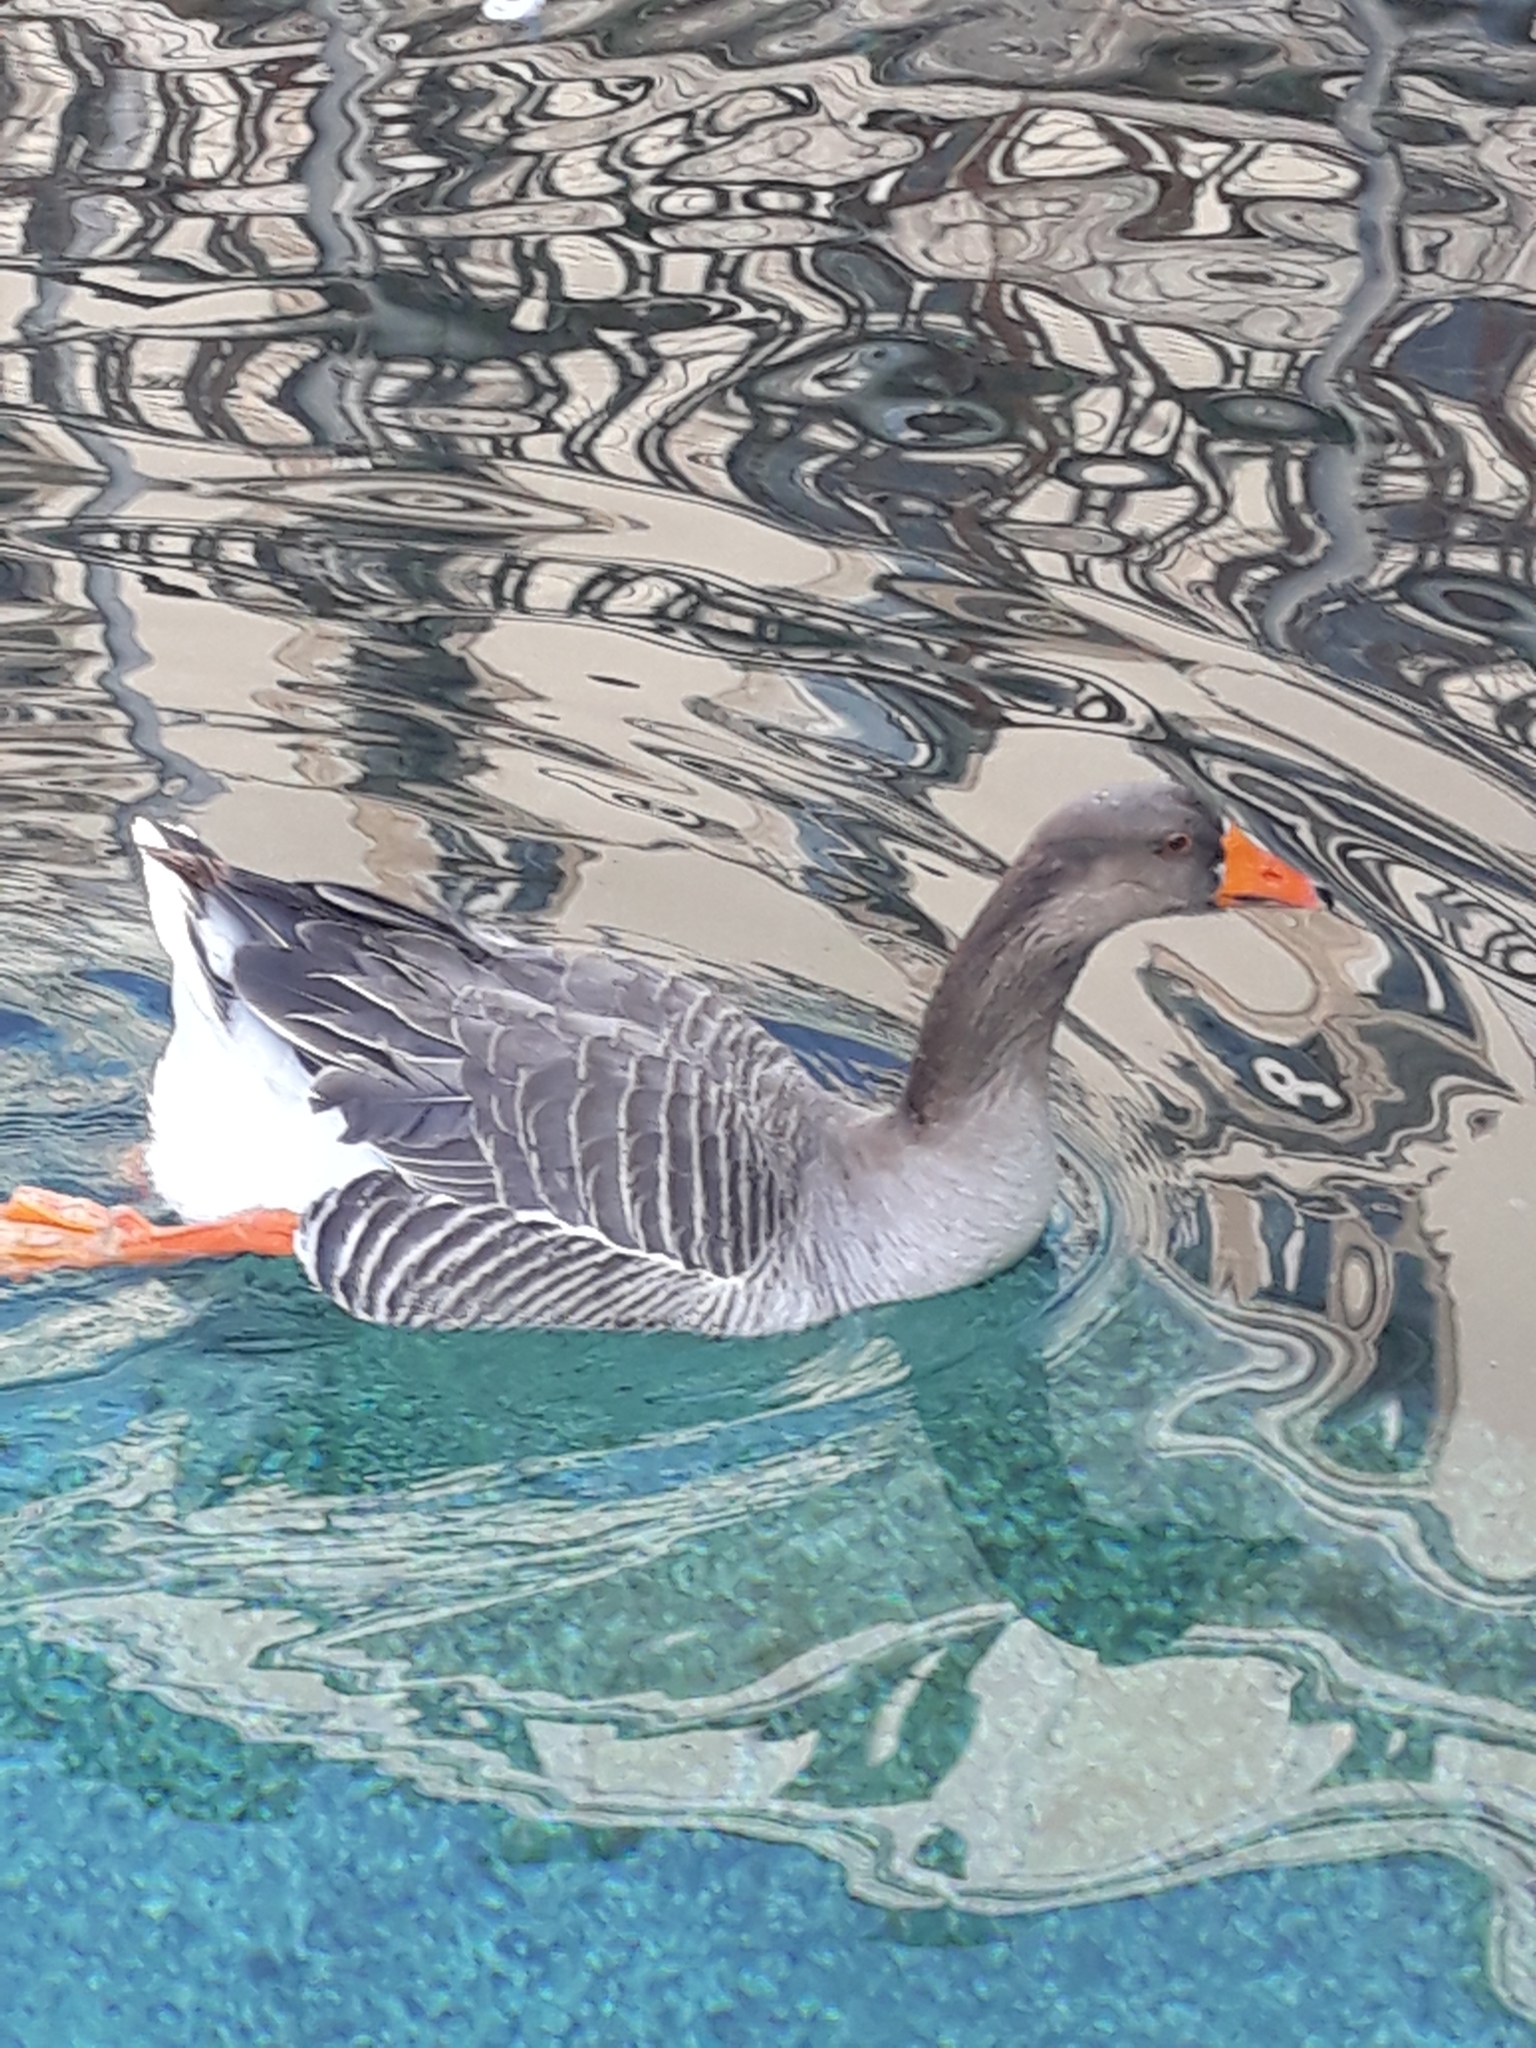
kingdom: Animalia
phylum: Chordata
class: Aves
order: Anseriformes
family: Anatidae
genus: Anser
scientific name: Anser anser
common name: Greylag goose
